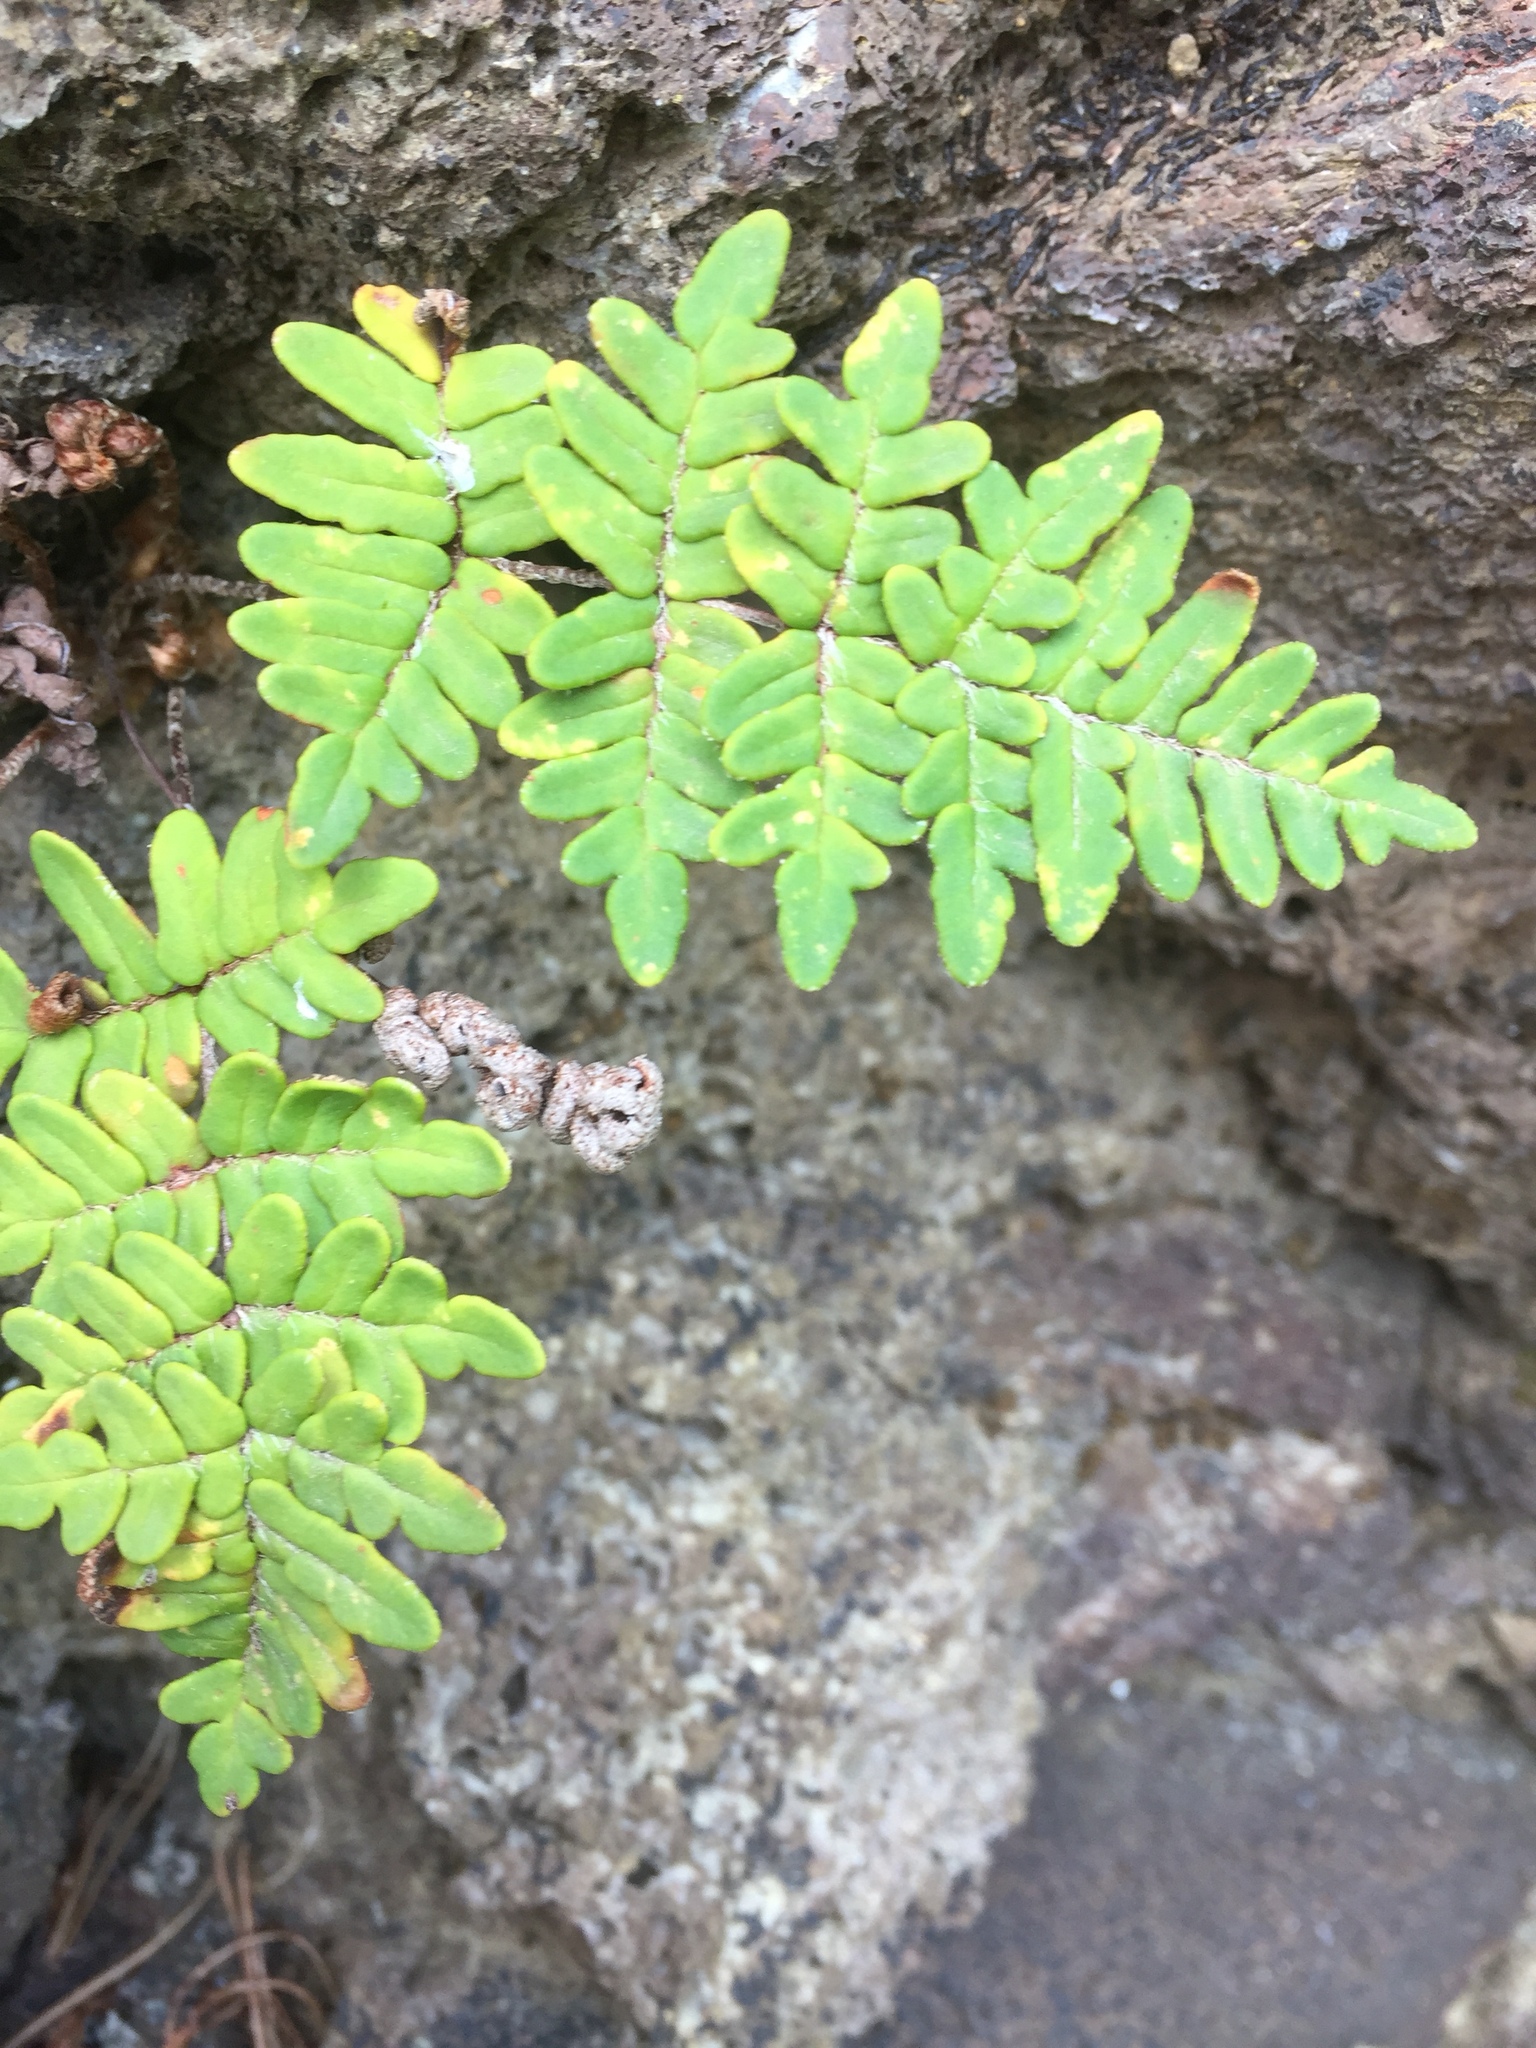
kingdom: Plantae
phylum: Tracheophyta
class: Polypodiopsida
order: Polypodiales
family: Pteridaceae
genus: Paragymnopteris
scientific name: Paragymnopteris marantae
